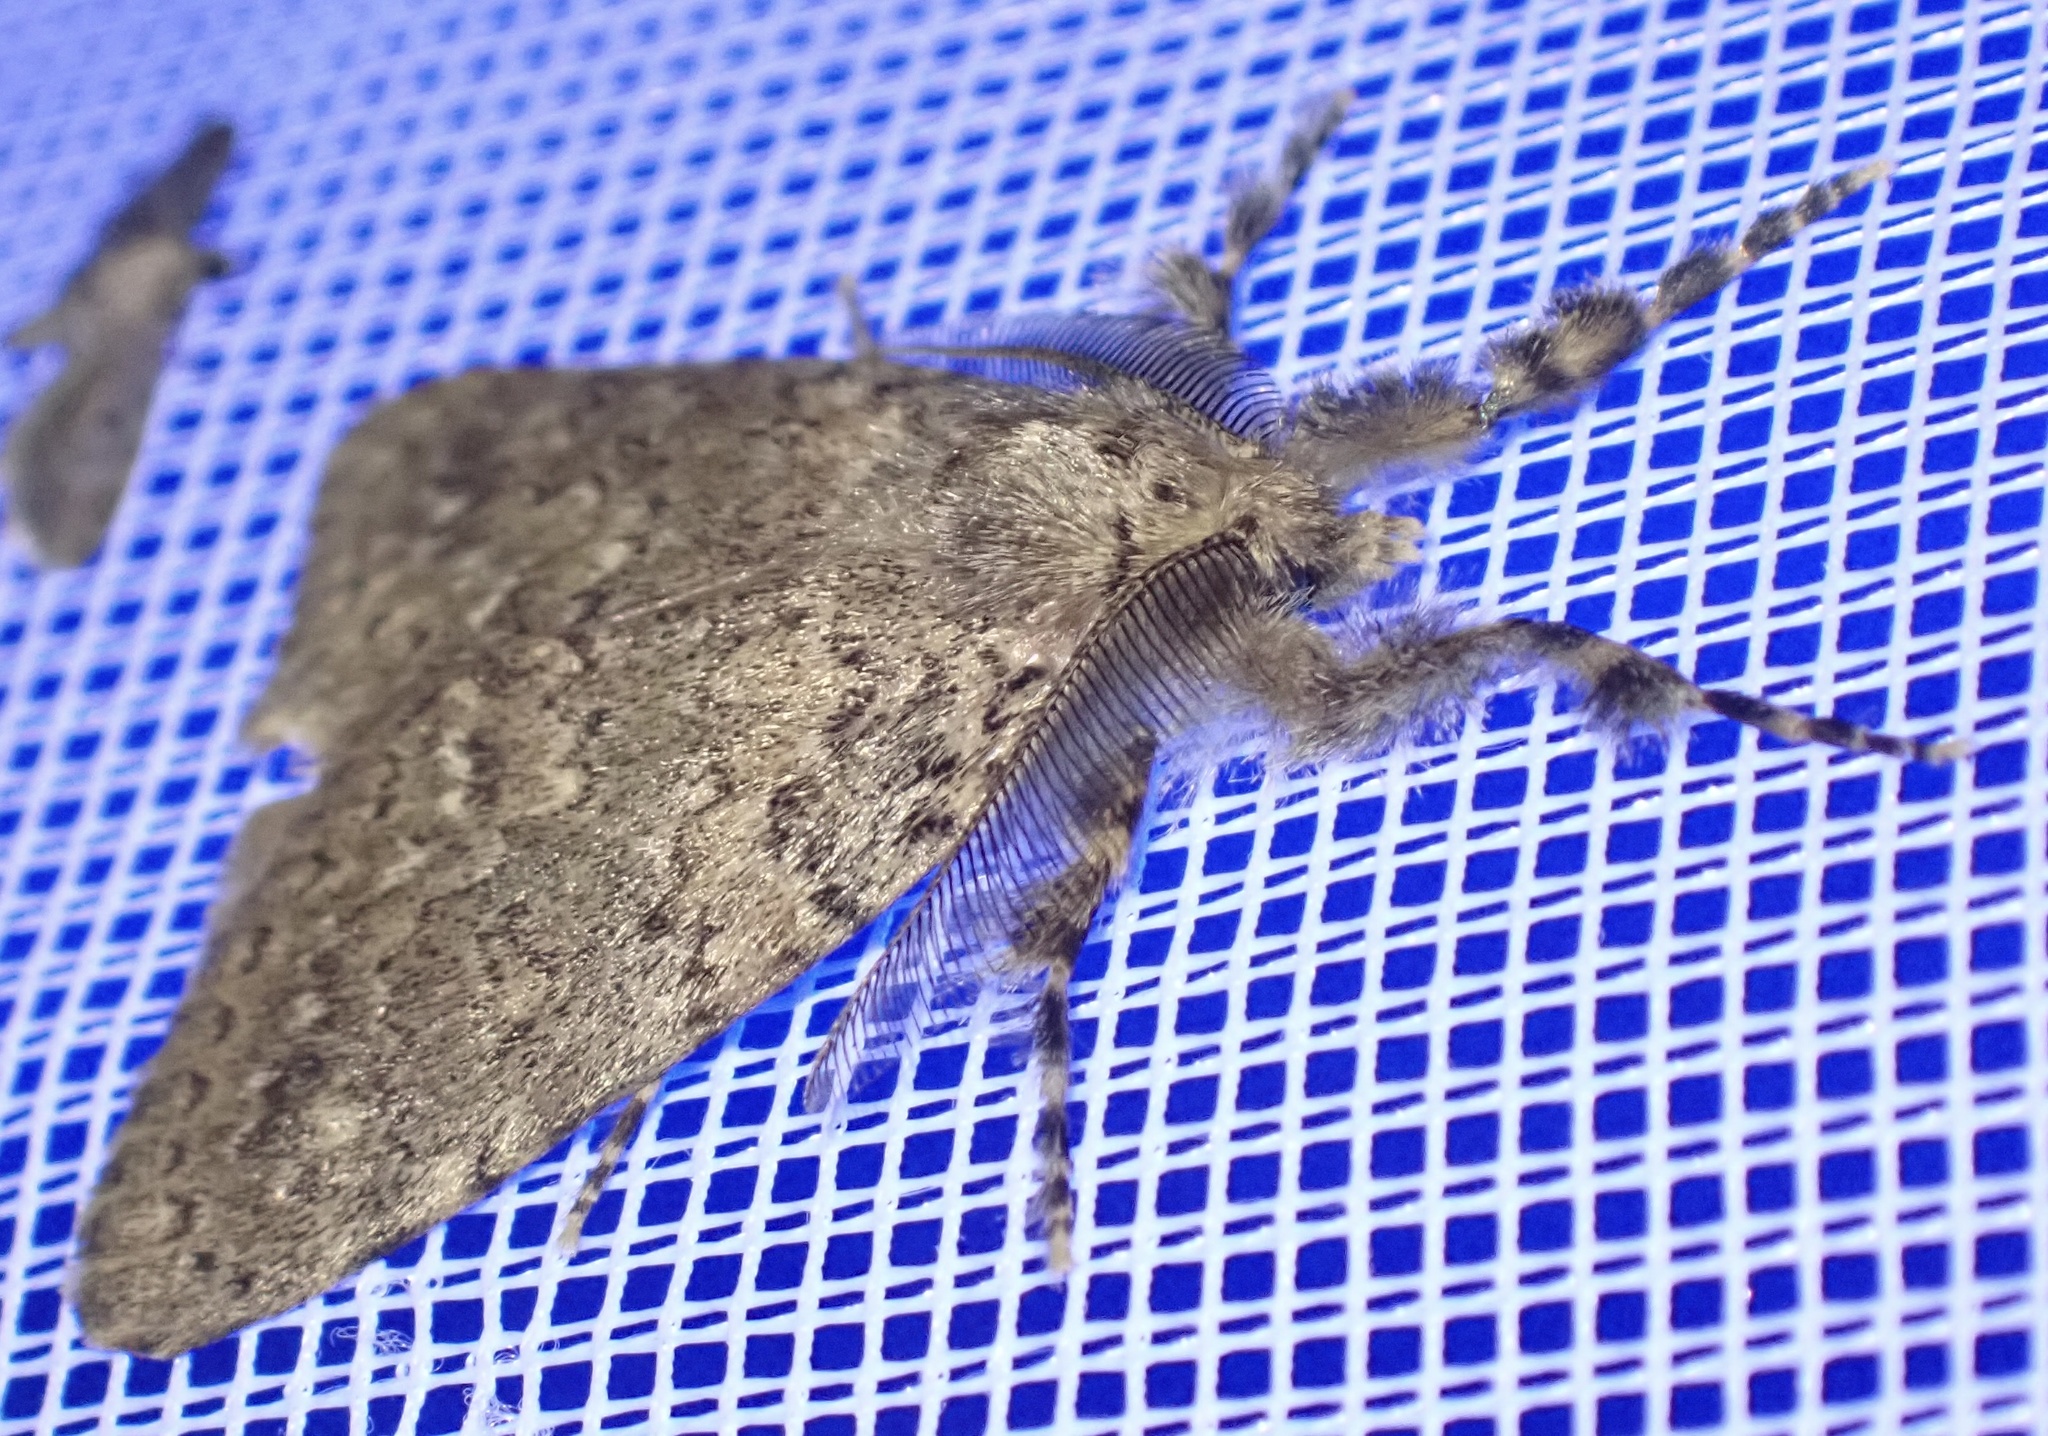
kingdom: Animalia
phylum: Arthropoda
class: Insecta
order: Lepidoptera
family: Erebidae
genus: Laelia
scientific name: Laelia fusca
